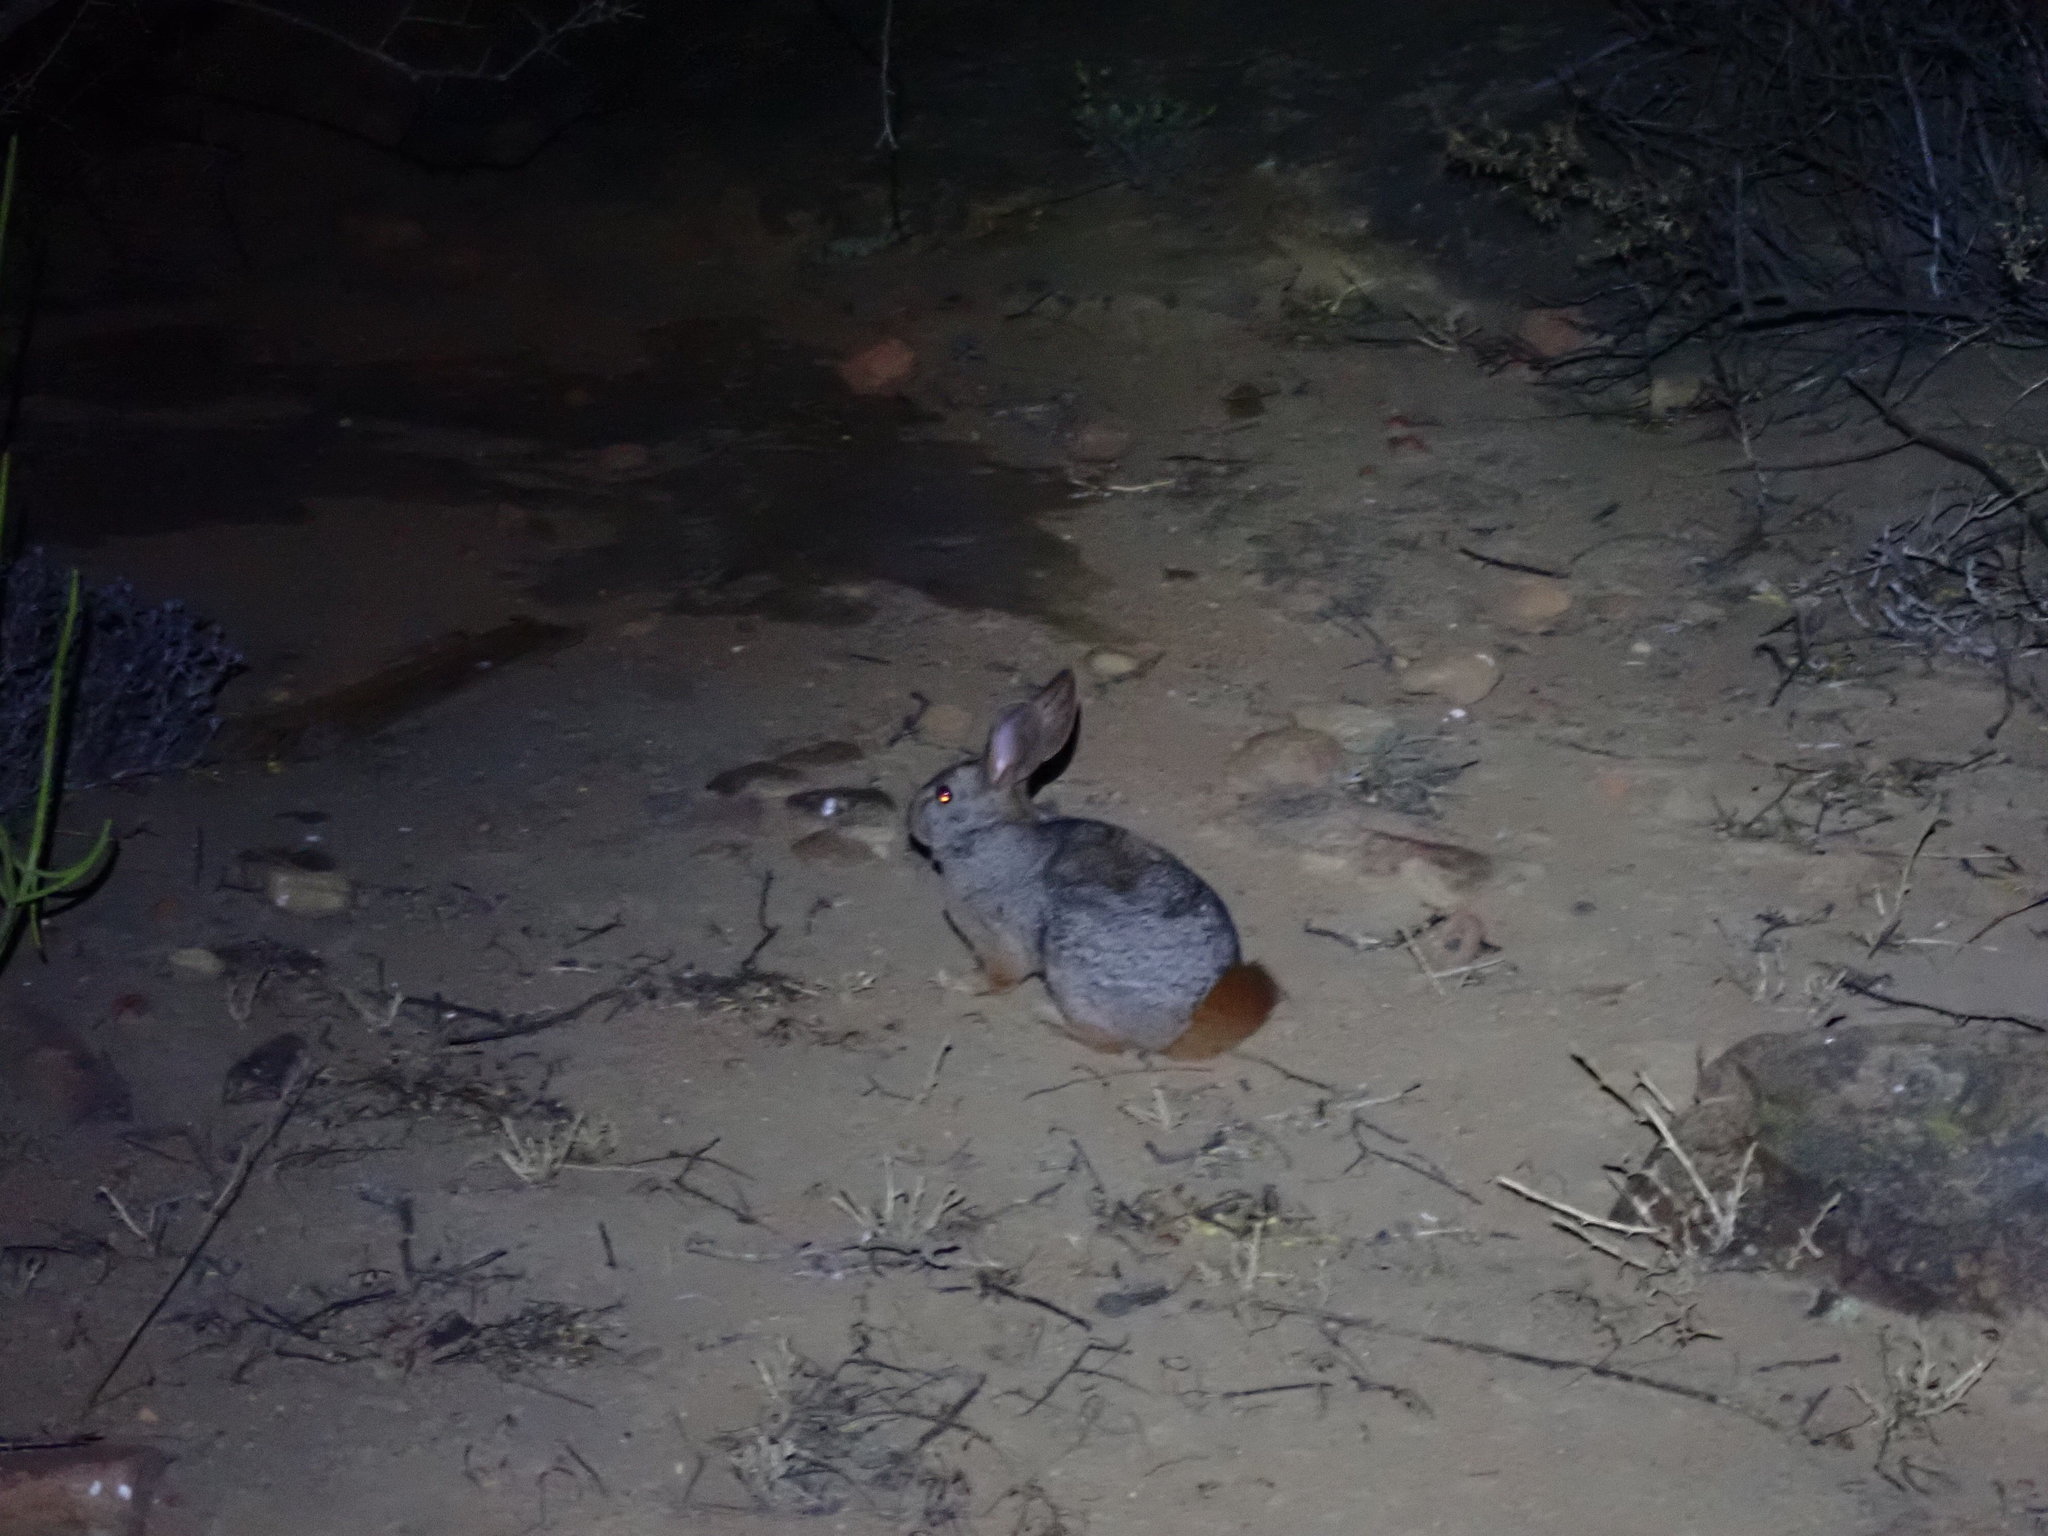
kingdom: Animalia
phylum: Chordata
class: Mammalia
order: Lagomorpha
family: Leporidae
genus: Pronolagus
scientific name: Pronolagus saundersiae
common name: Hewitt's red rock hare
